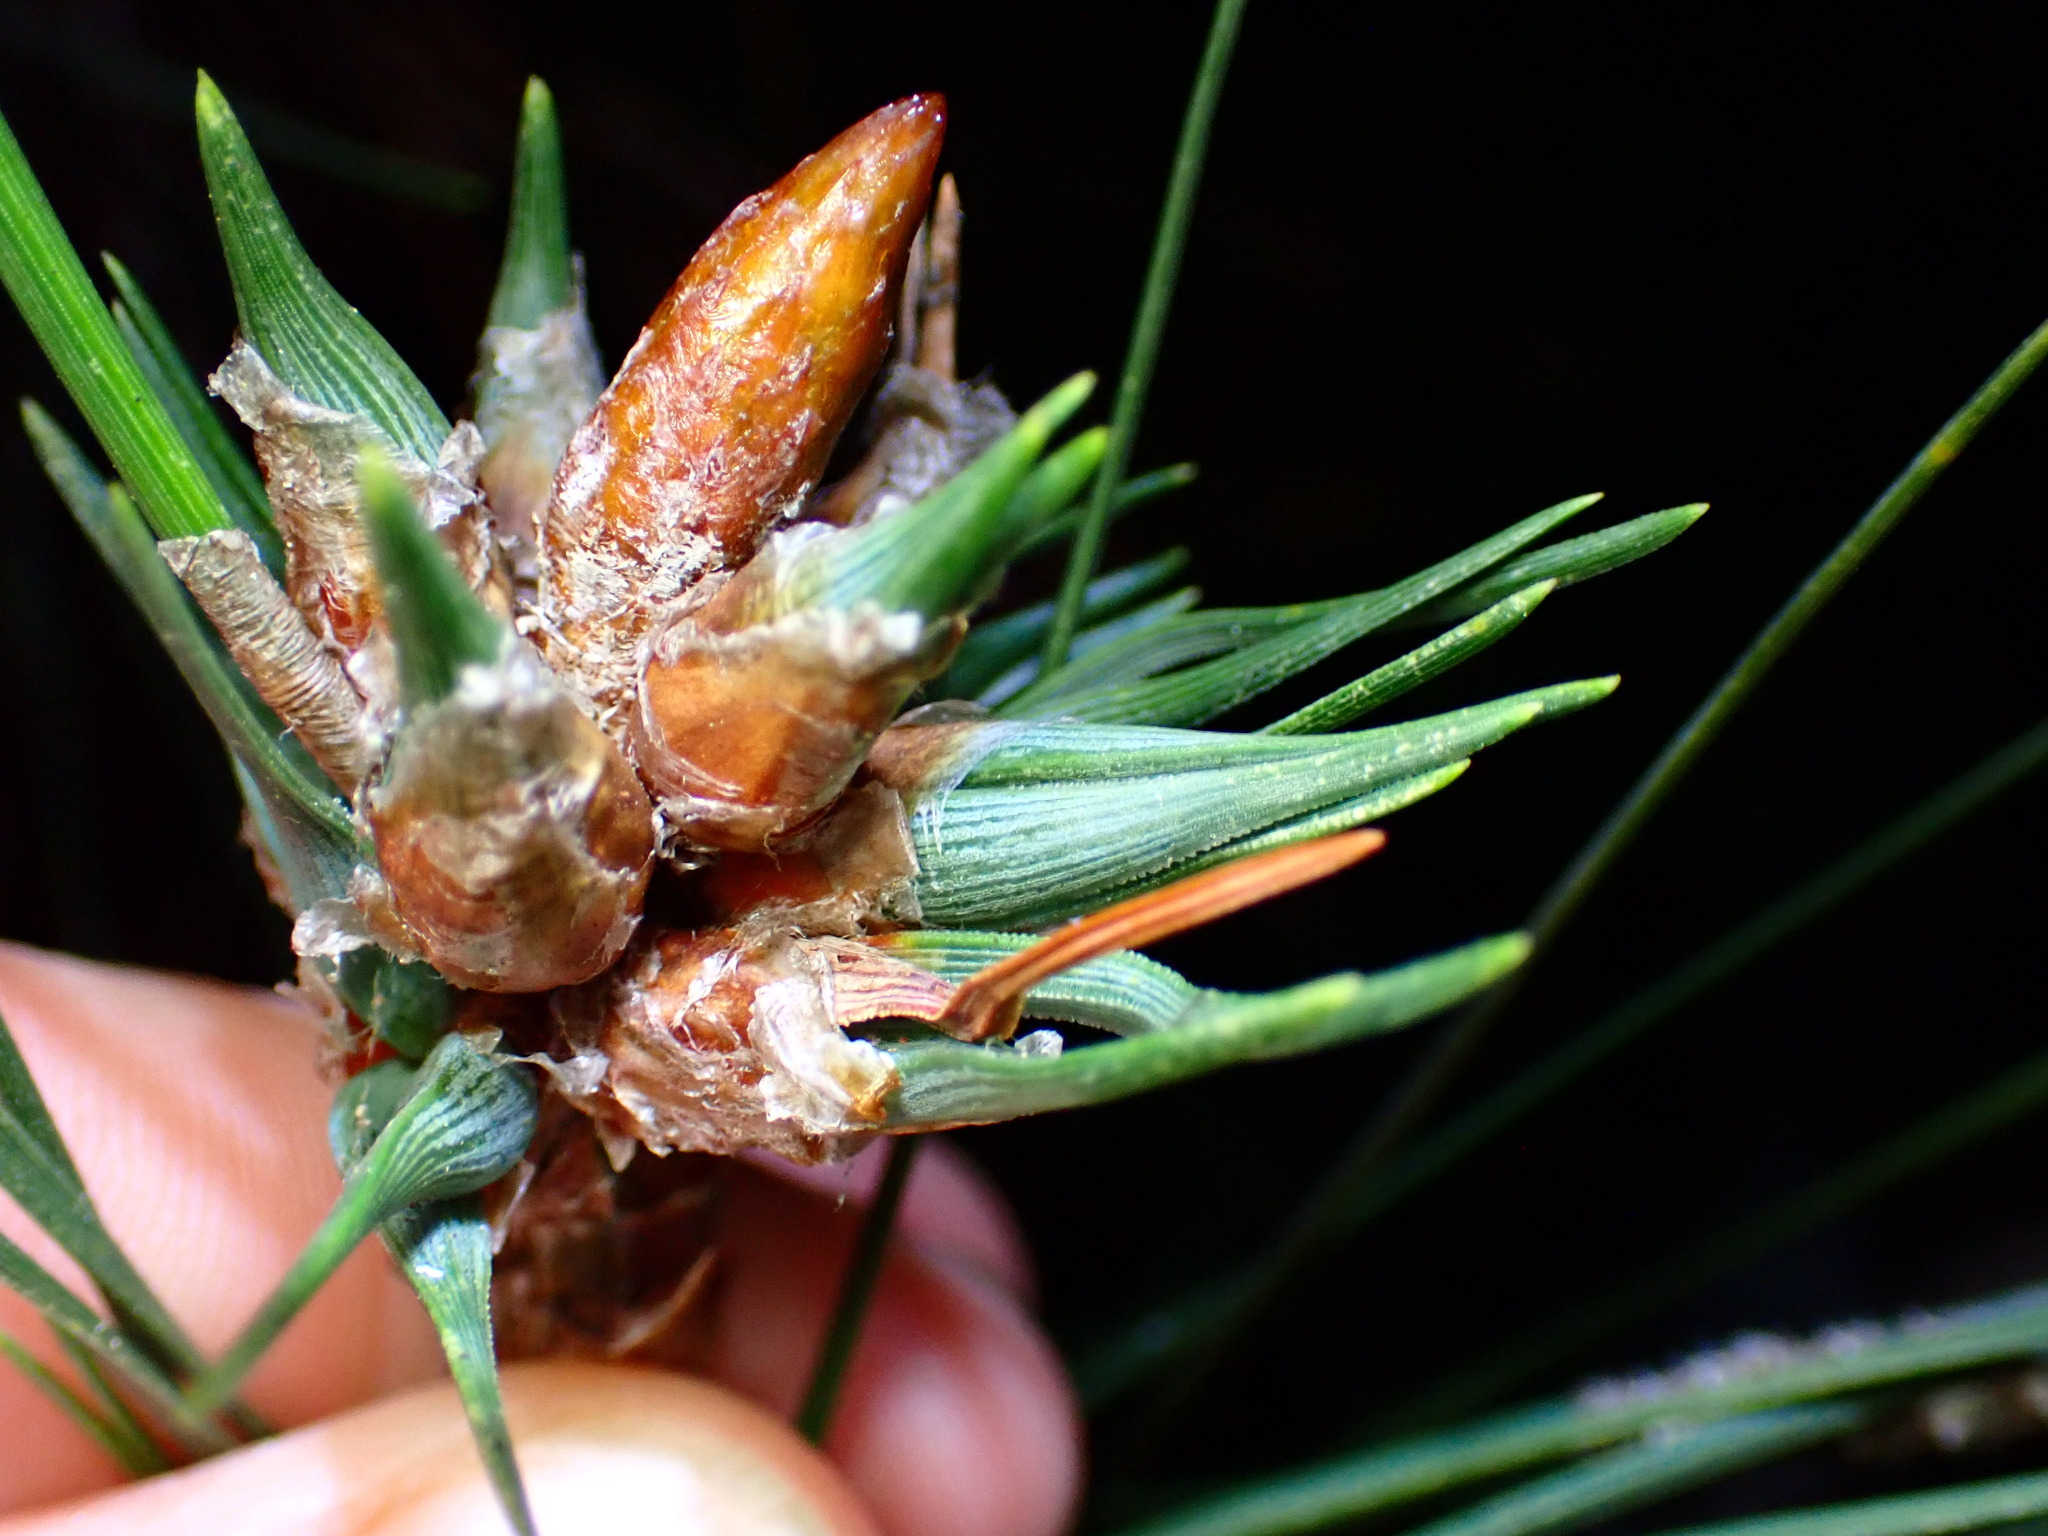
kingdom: Animalia
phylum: Arthropoda
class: Insecta
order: Diptera
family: Cecidomyiidae
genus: Thecodiplosis
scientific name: Thecodiplosis piniradiatae
